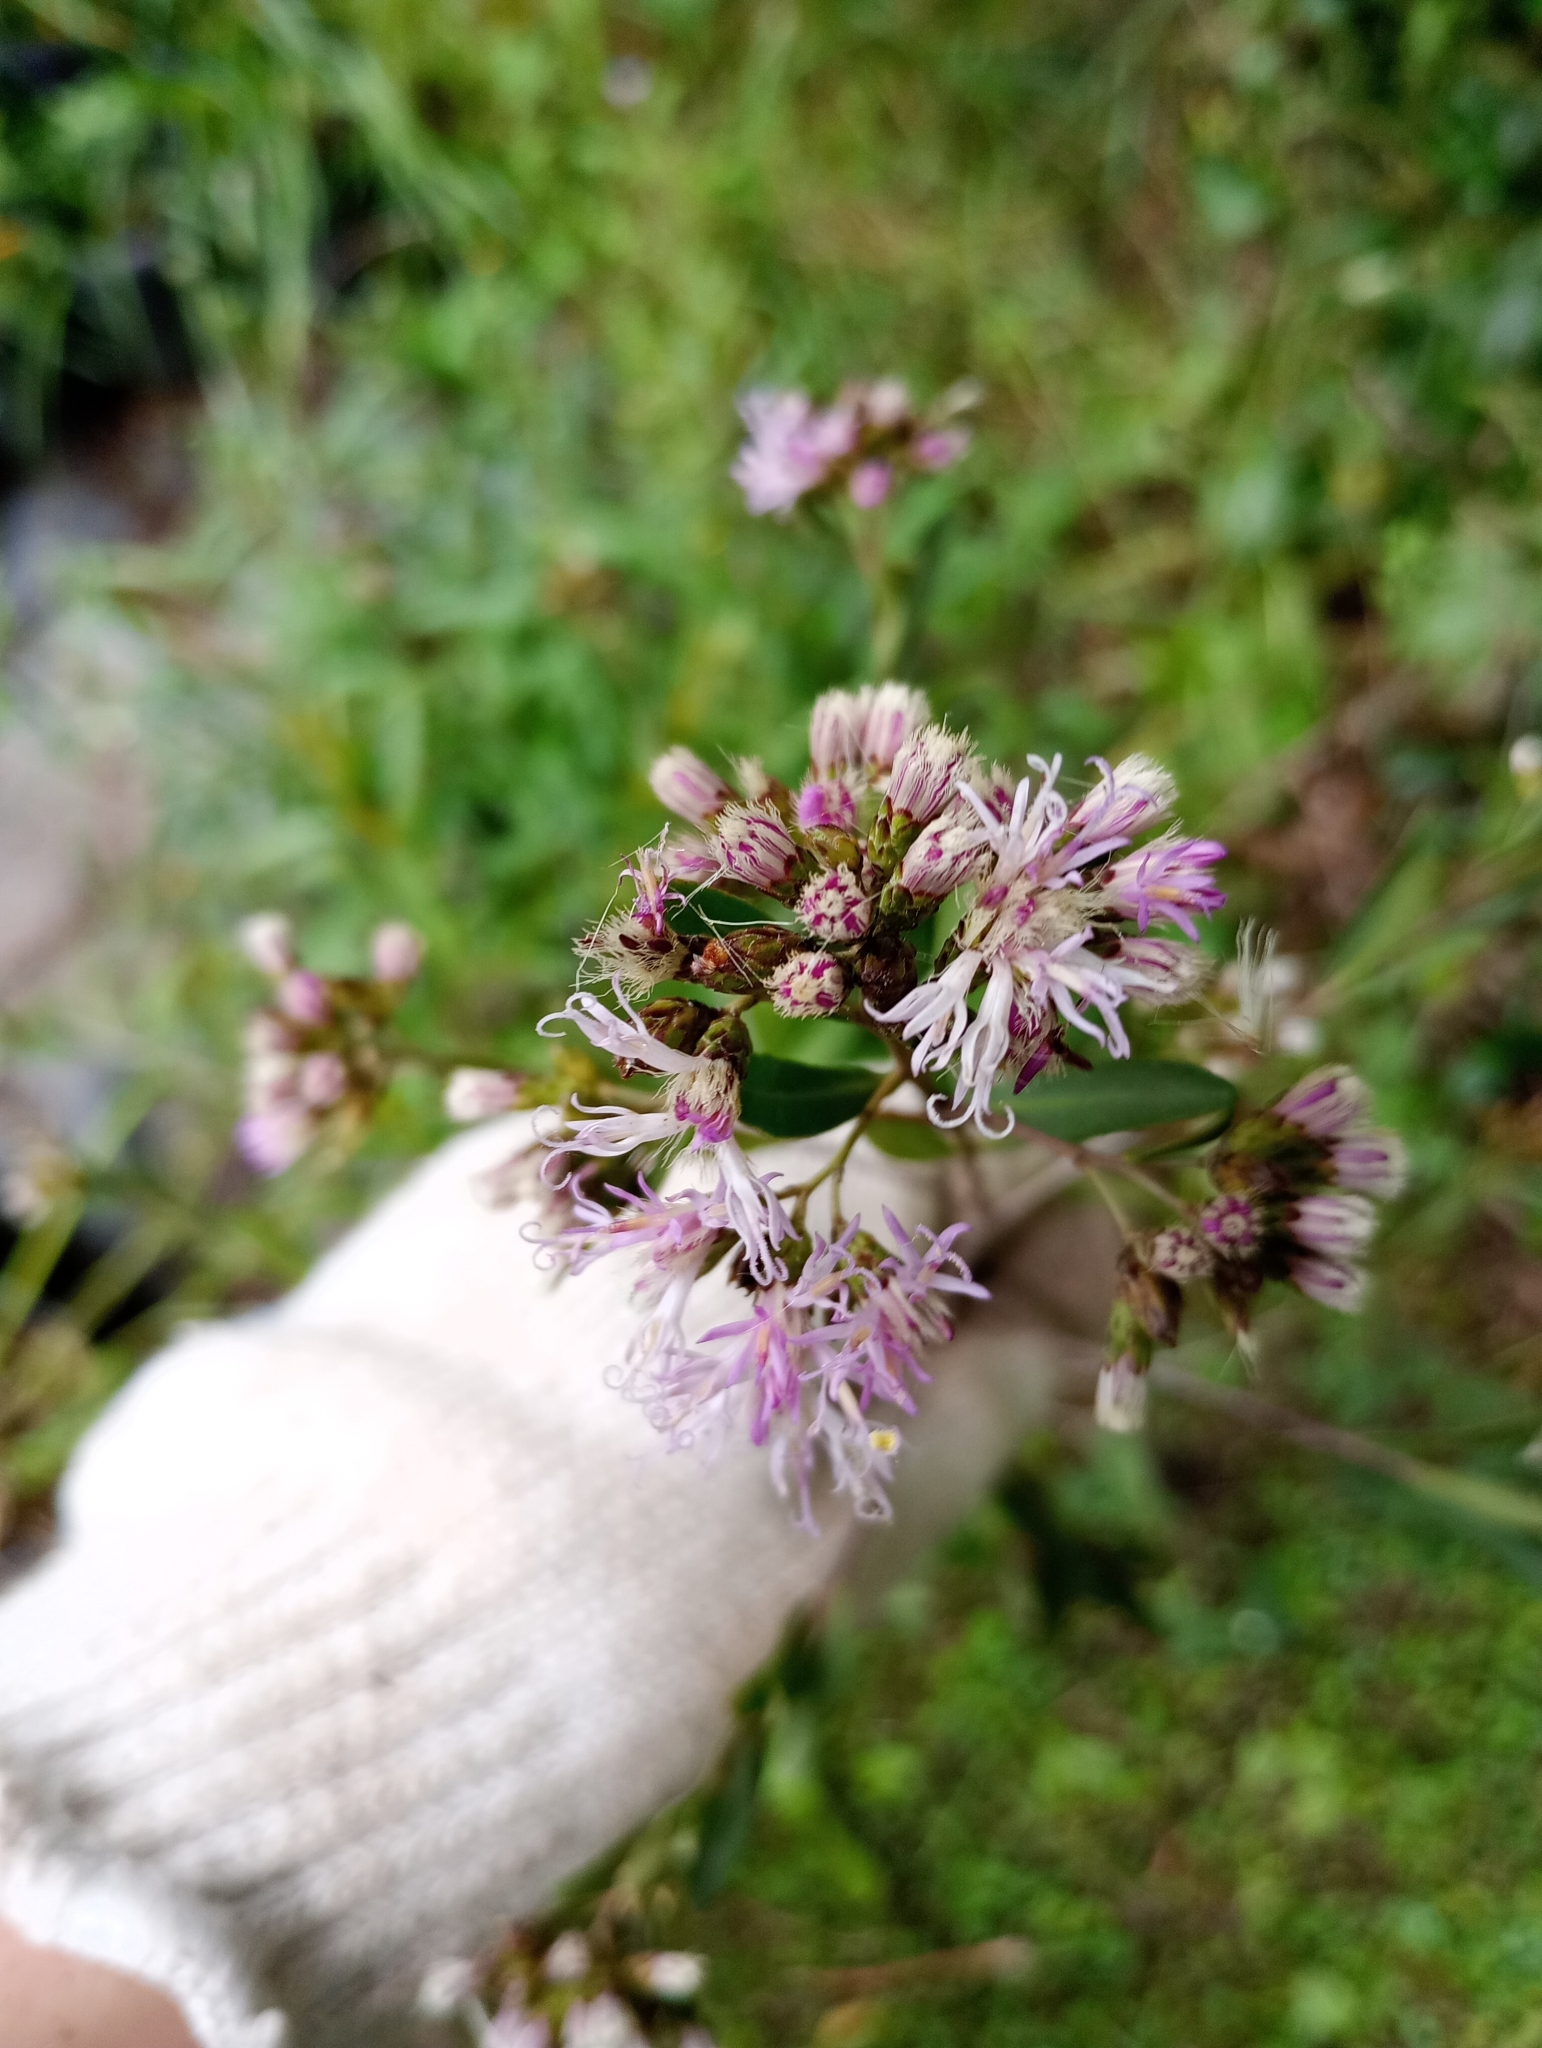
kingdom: Plantae
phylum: Tracheophyta
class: Magnoliopsida
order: Asterales
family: Asteraceae
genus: Vernonanthura
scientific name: Vernonanthura montevidensis
